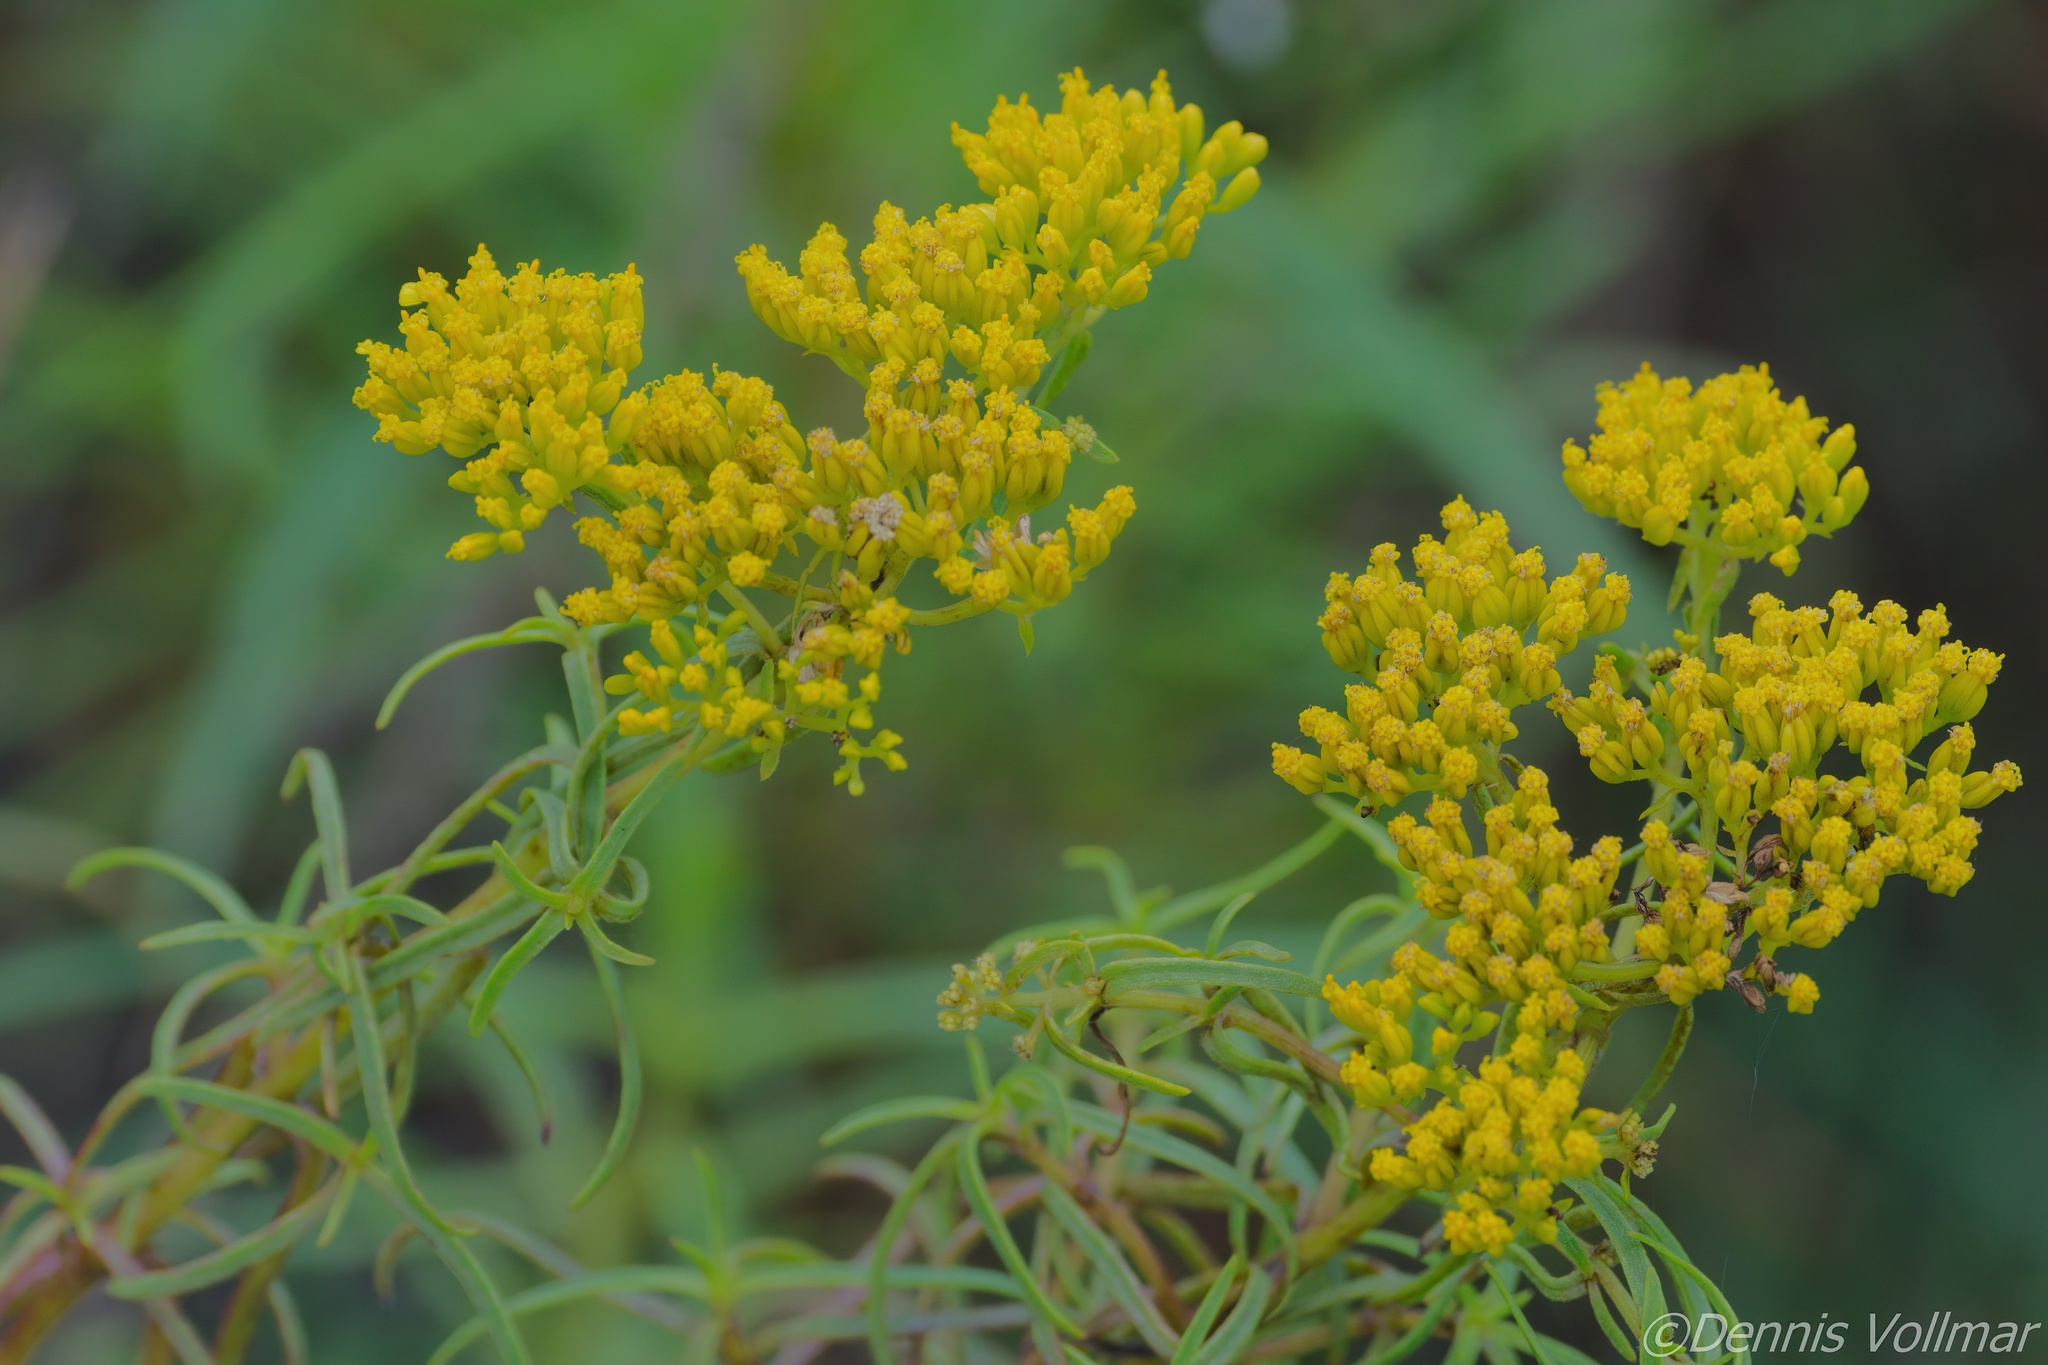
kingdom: Plantae
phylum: Tracheophyta
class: Magnoliopsida
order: Asterales
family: Asteraceae
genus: Flaveria
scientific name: Flaveria linearis
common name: Yellowtop
